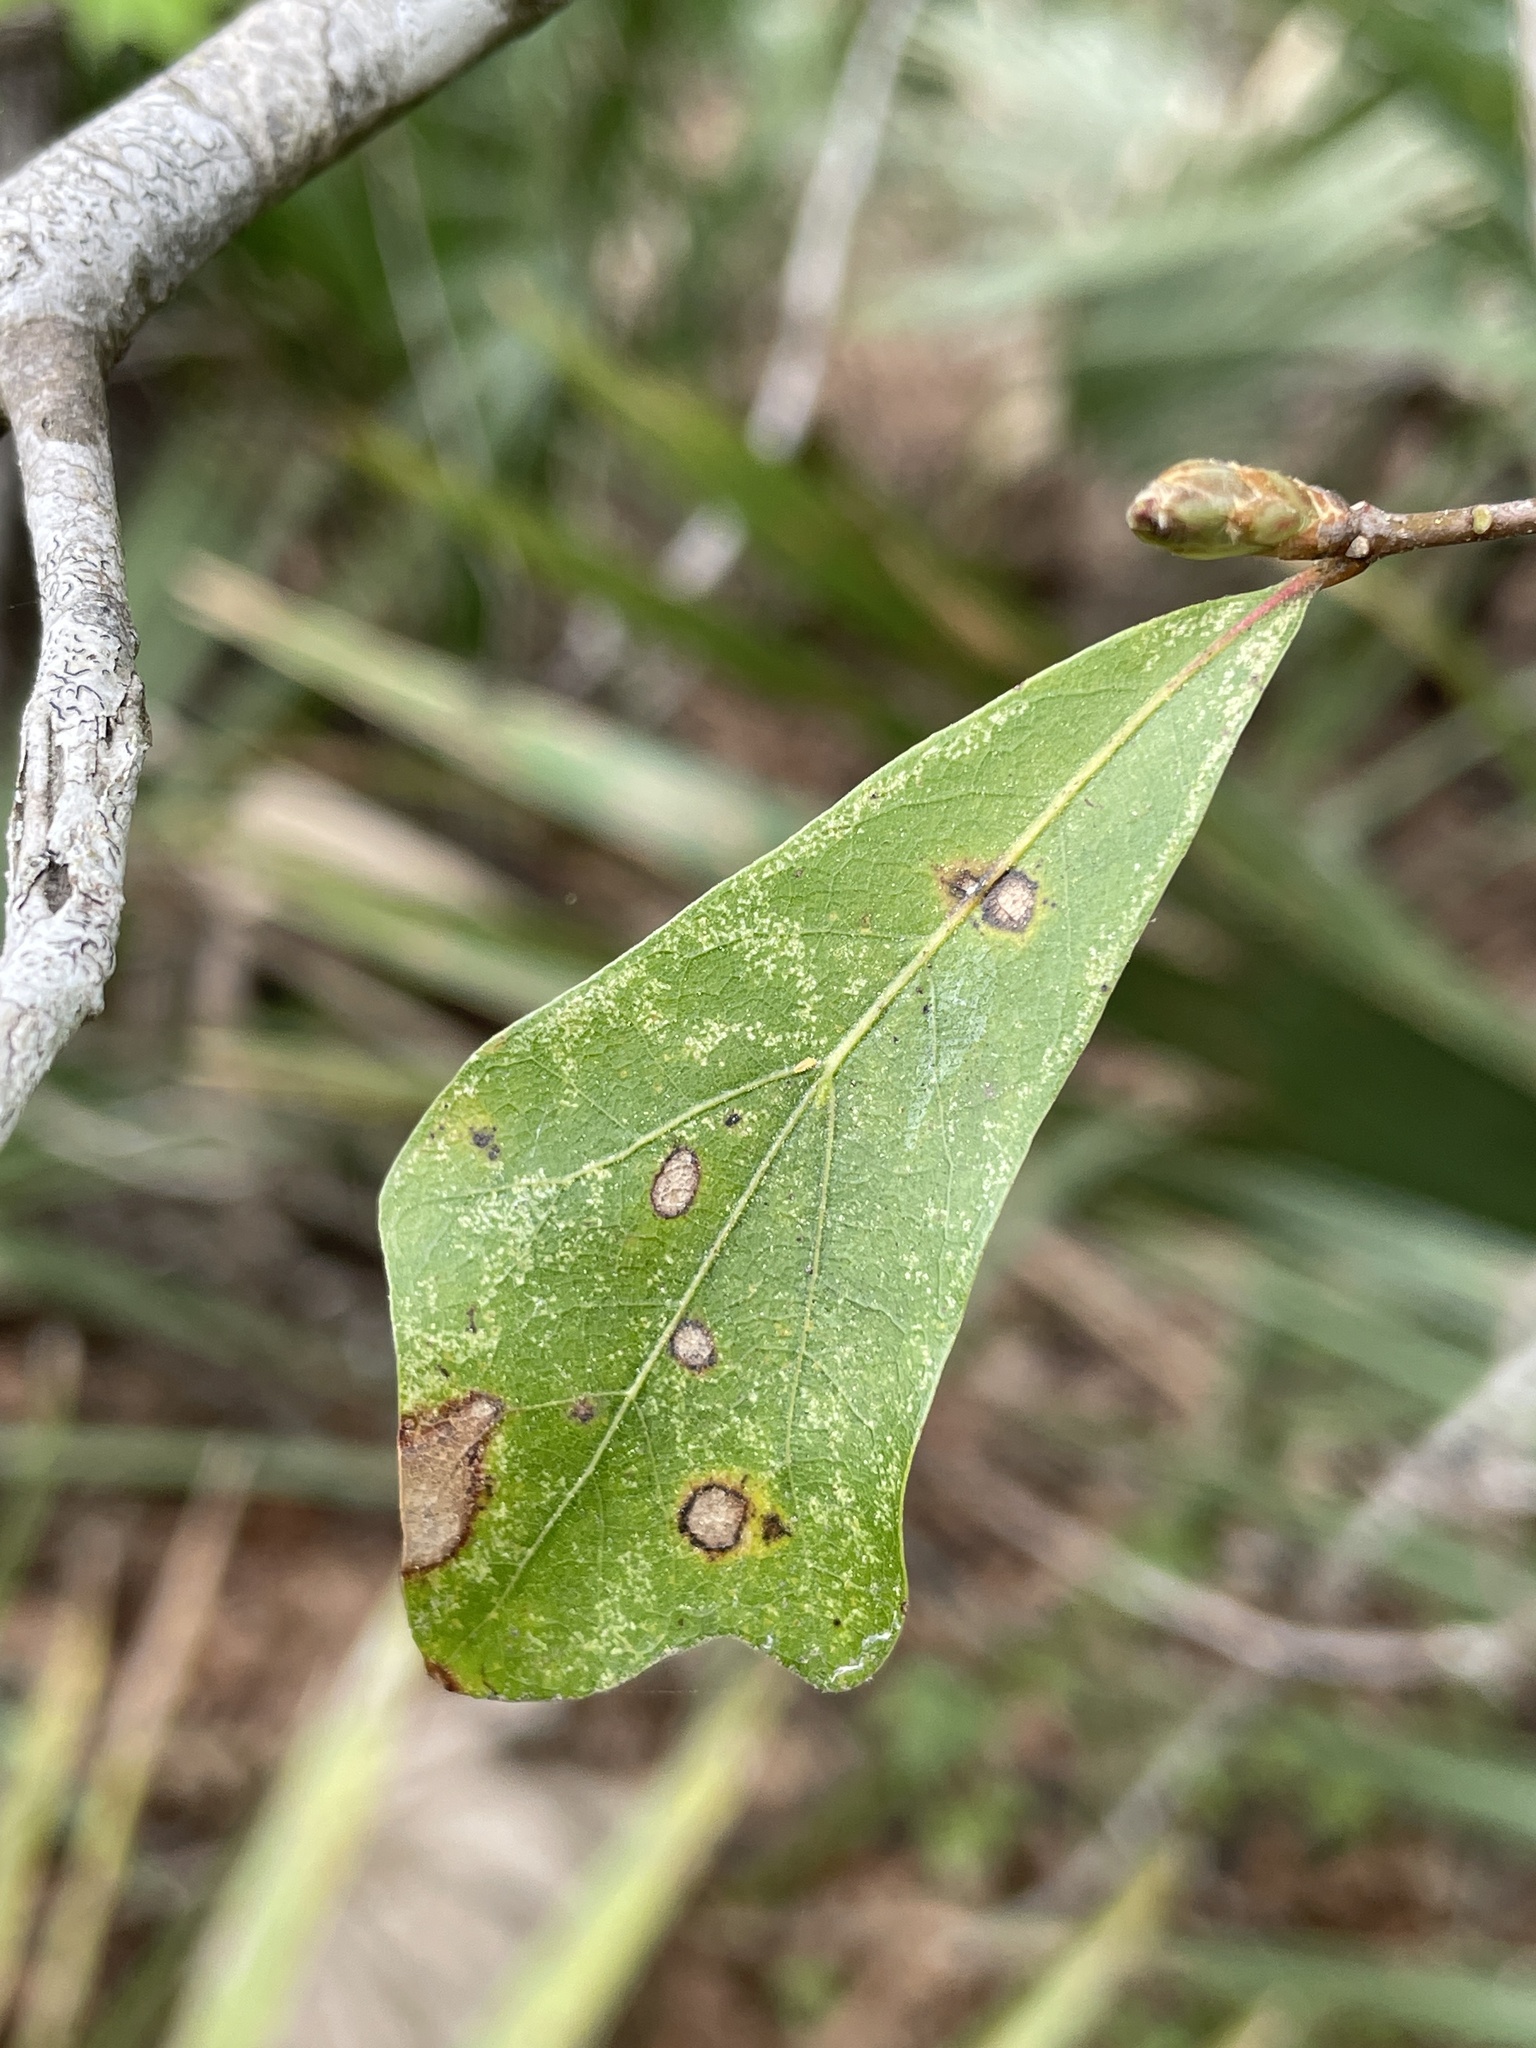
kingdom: Plantae
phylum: Tracheophyta
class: Magnoliopsida
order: Fagales
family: Fagaceae
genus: Quercus
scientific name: Quercus nigra
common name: Water oak
